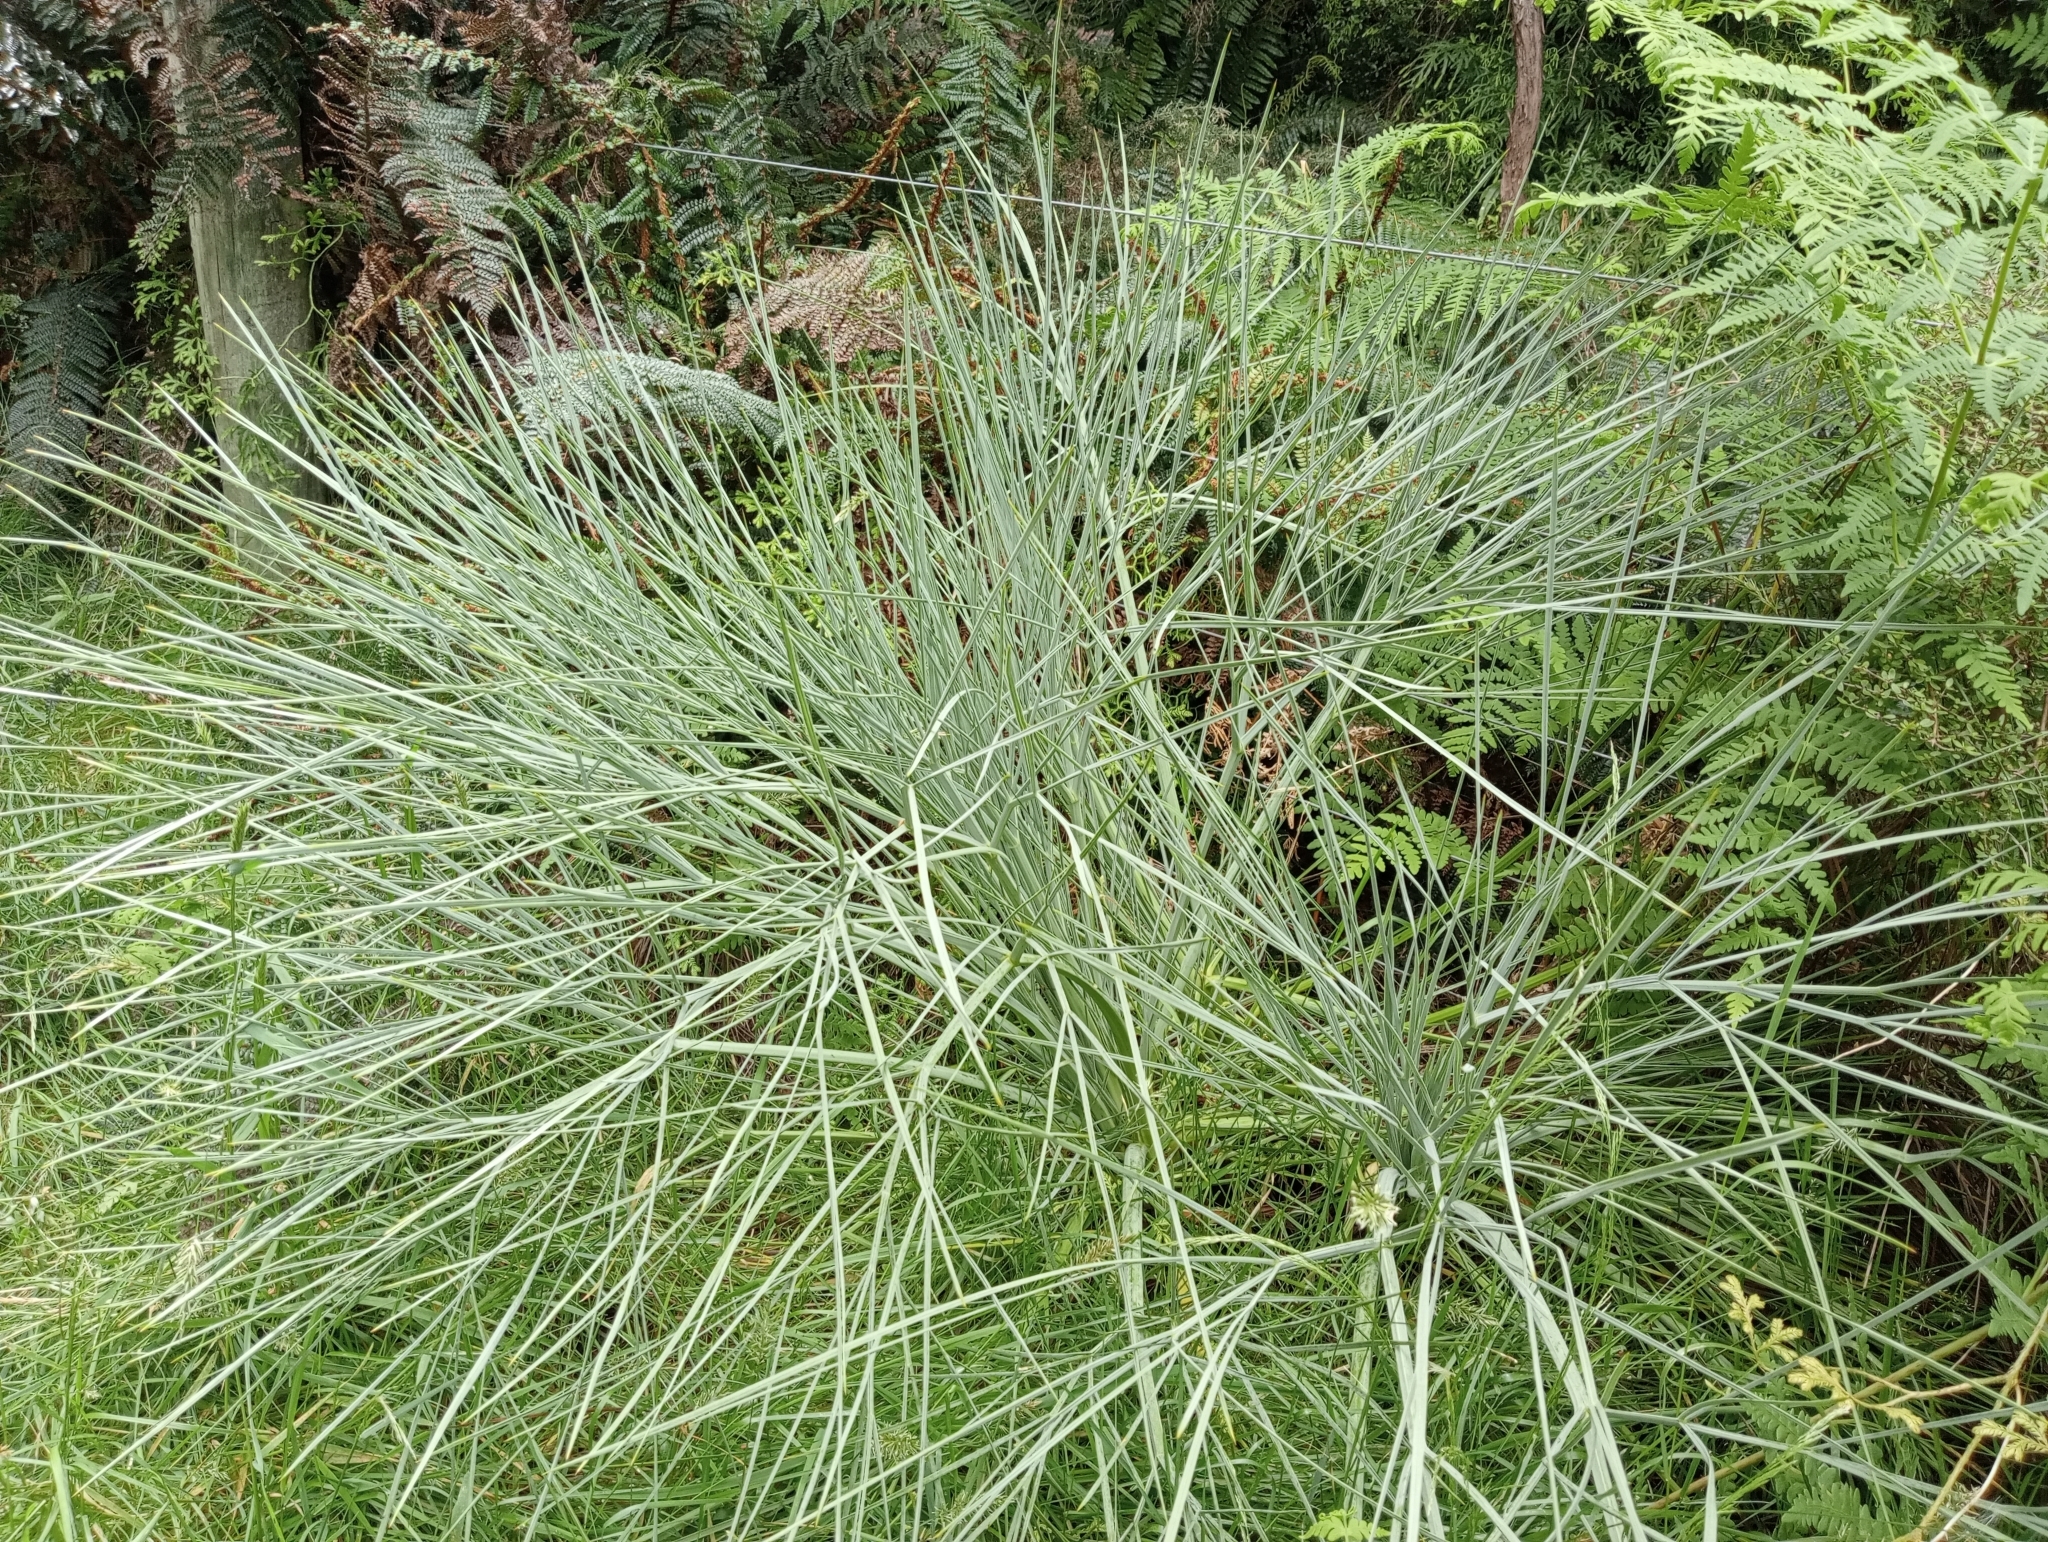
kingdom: Plantae
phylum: Tracheophyta
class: Magnoliopsida
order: Apiales
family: Apiaceae
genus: Aciphylla
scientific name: Aciphylla glaucescens
